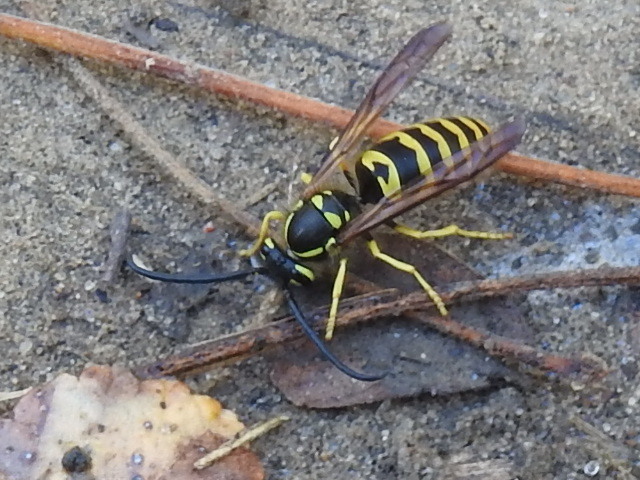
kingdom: Animalia
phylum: Arthropoda
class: Insecta
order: Hymenoptera
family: Vespidae
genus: Vespula
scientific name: Vespula maculifrons
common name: Eastern yellowjacket
